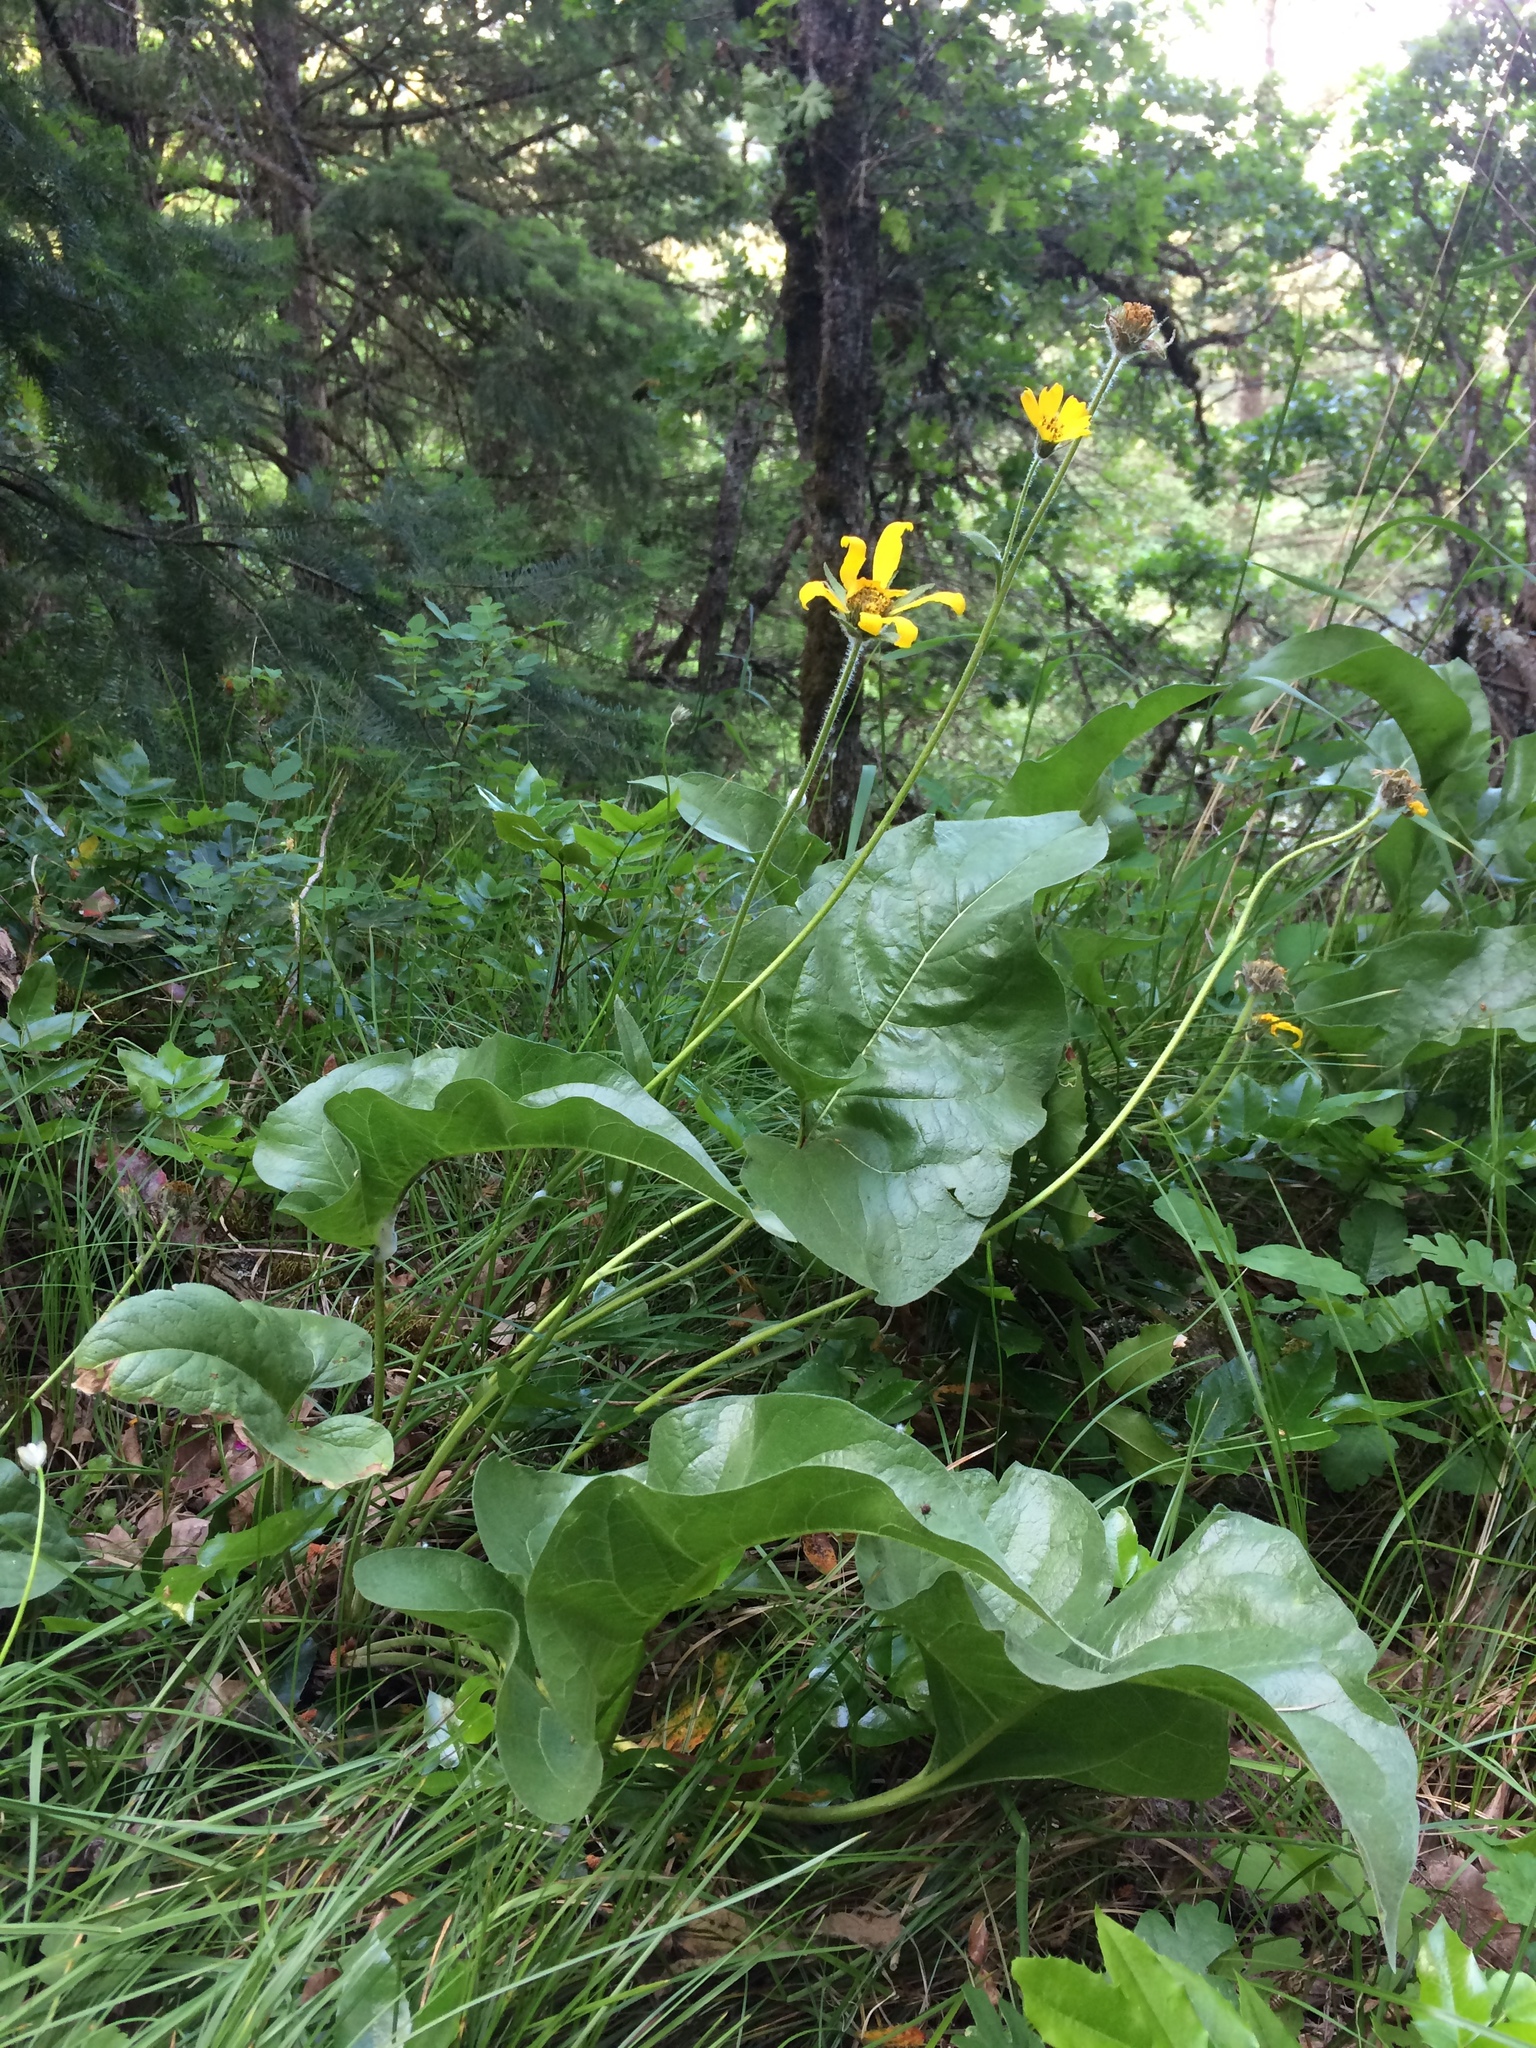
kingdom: Plantae
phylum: Tracheophyta
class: Magnoliopsida
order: Asterales
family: Asteraceae
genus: Balsamorhiza
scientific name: Balsamorhiza careyana
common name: Carey's balsamroot
